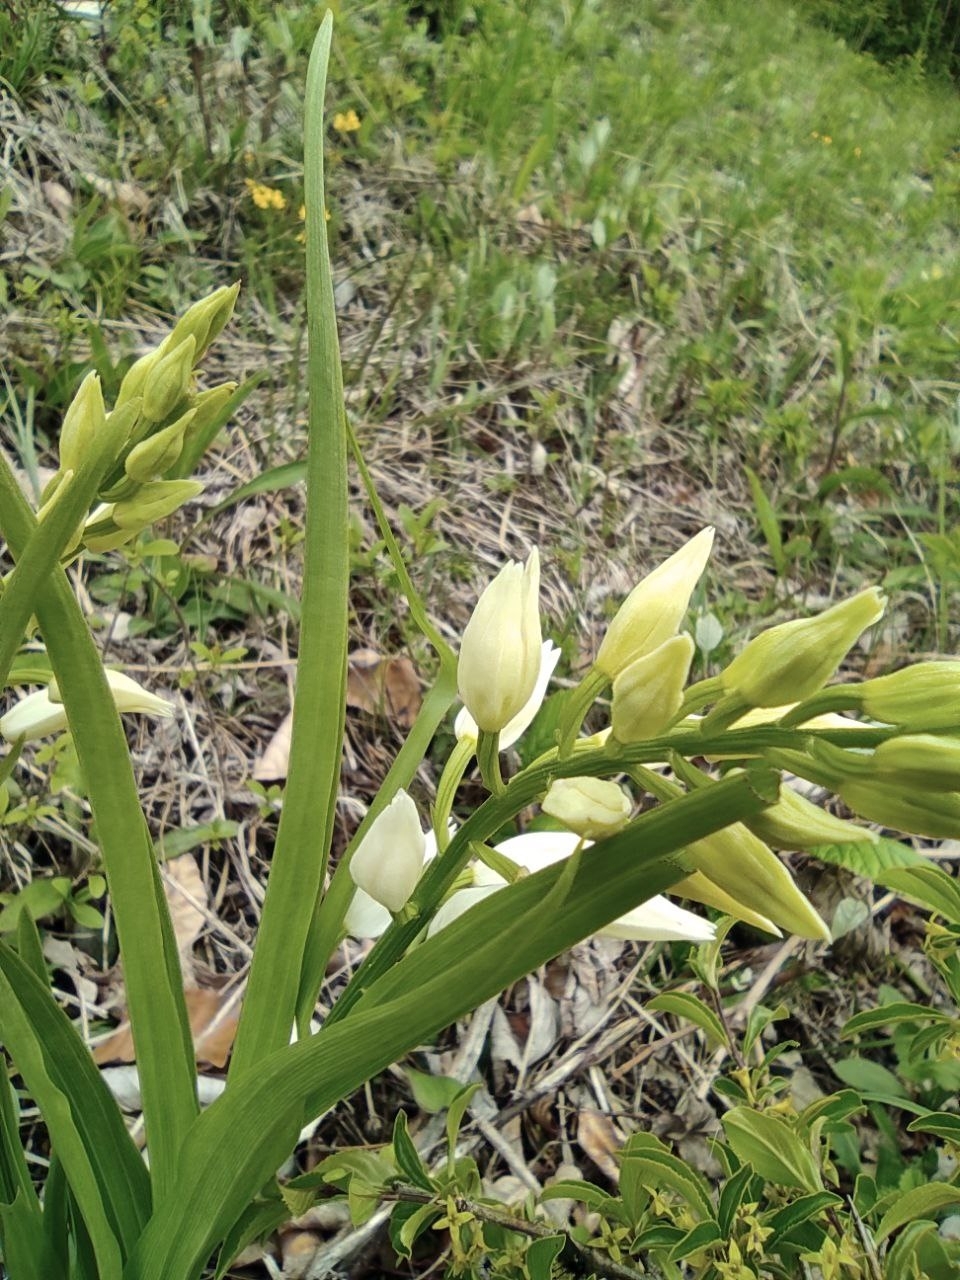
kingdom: Plantae
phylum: Tracheophyta
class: Liliopsida
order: Asparagales
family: Orchidaceae
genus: Cephalanthera
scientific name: Cephalanthera longifolia
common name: Narrow-leaved helleborine
